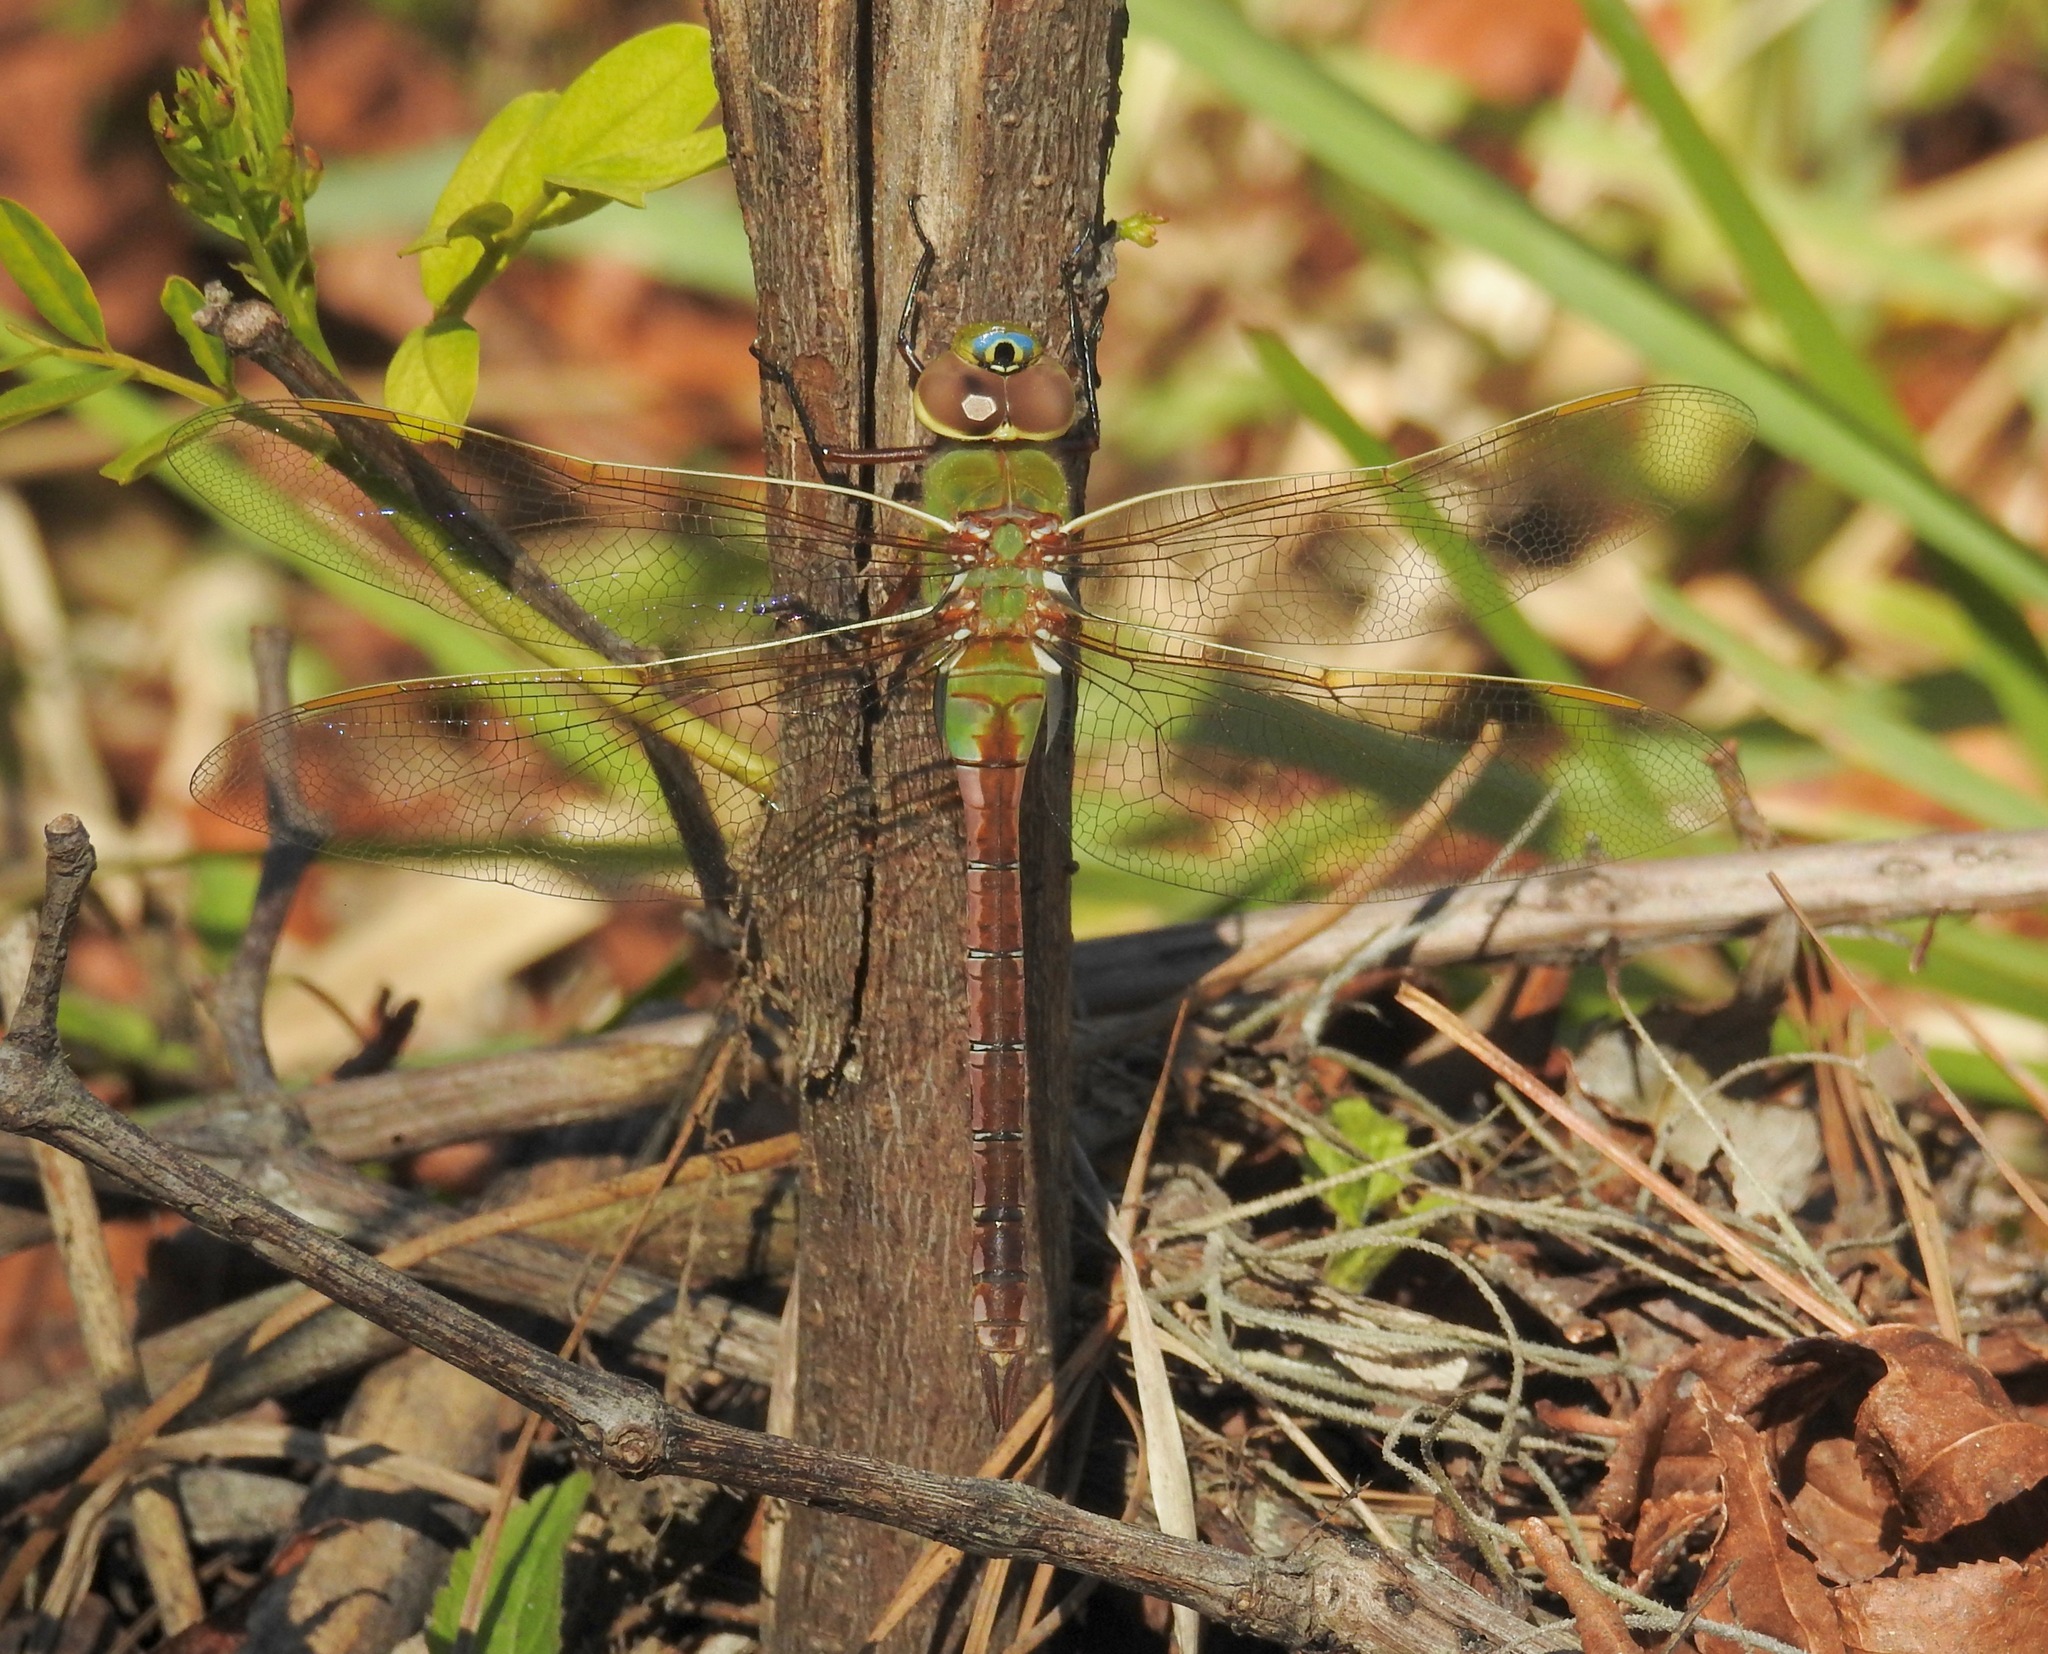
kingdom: Animalia
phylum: Arthropoda
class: Insecta
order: Odonata
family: Aeshnidae
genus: Anax
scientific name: Anax junius
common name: Common green darner
